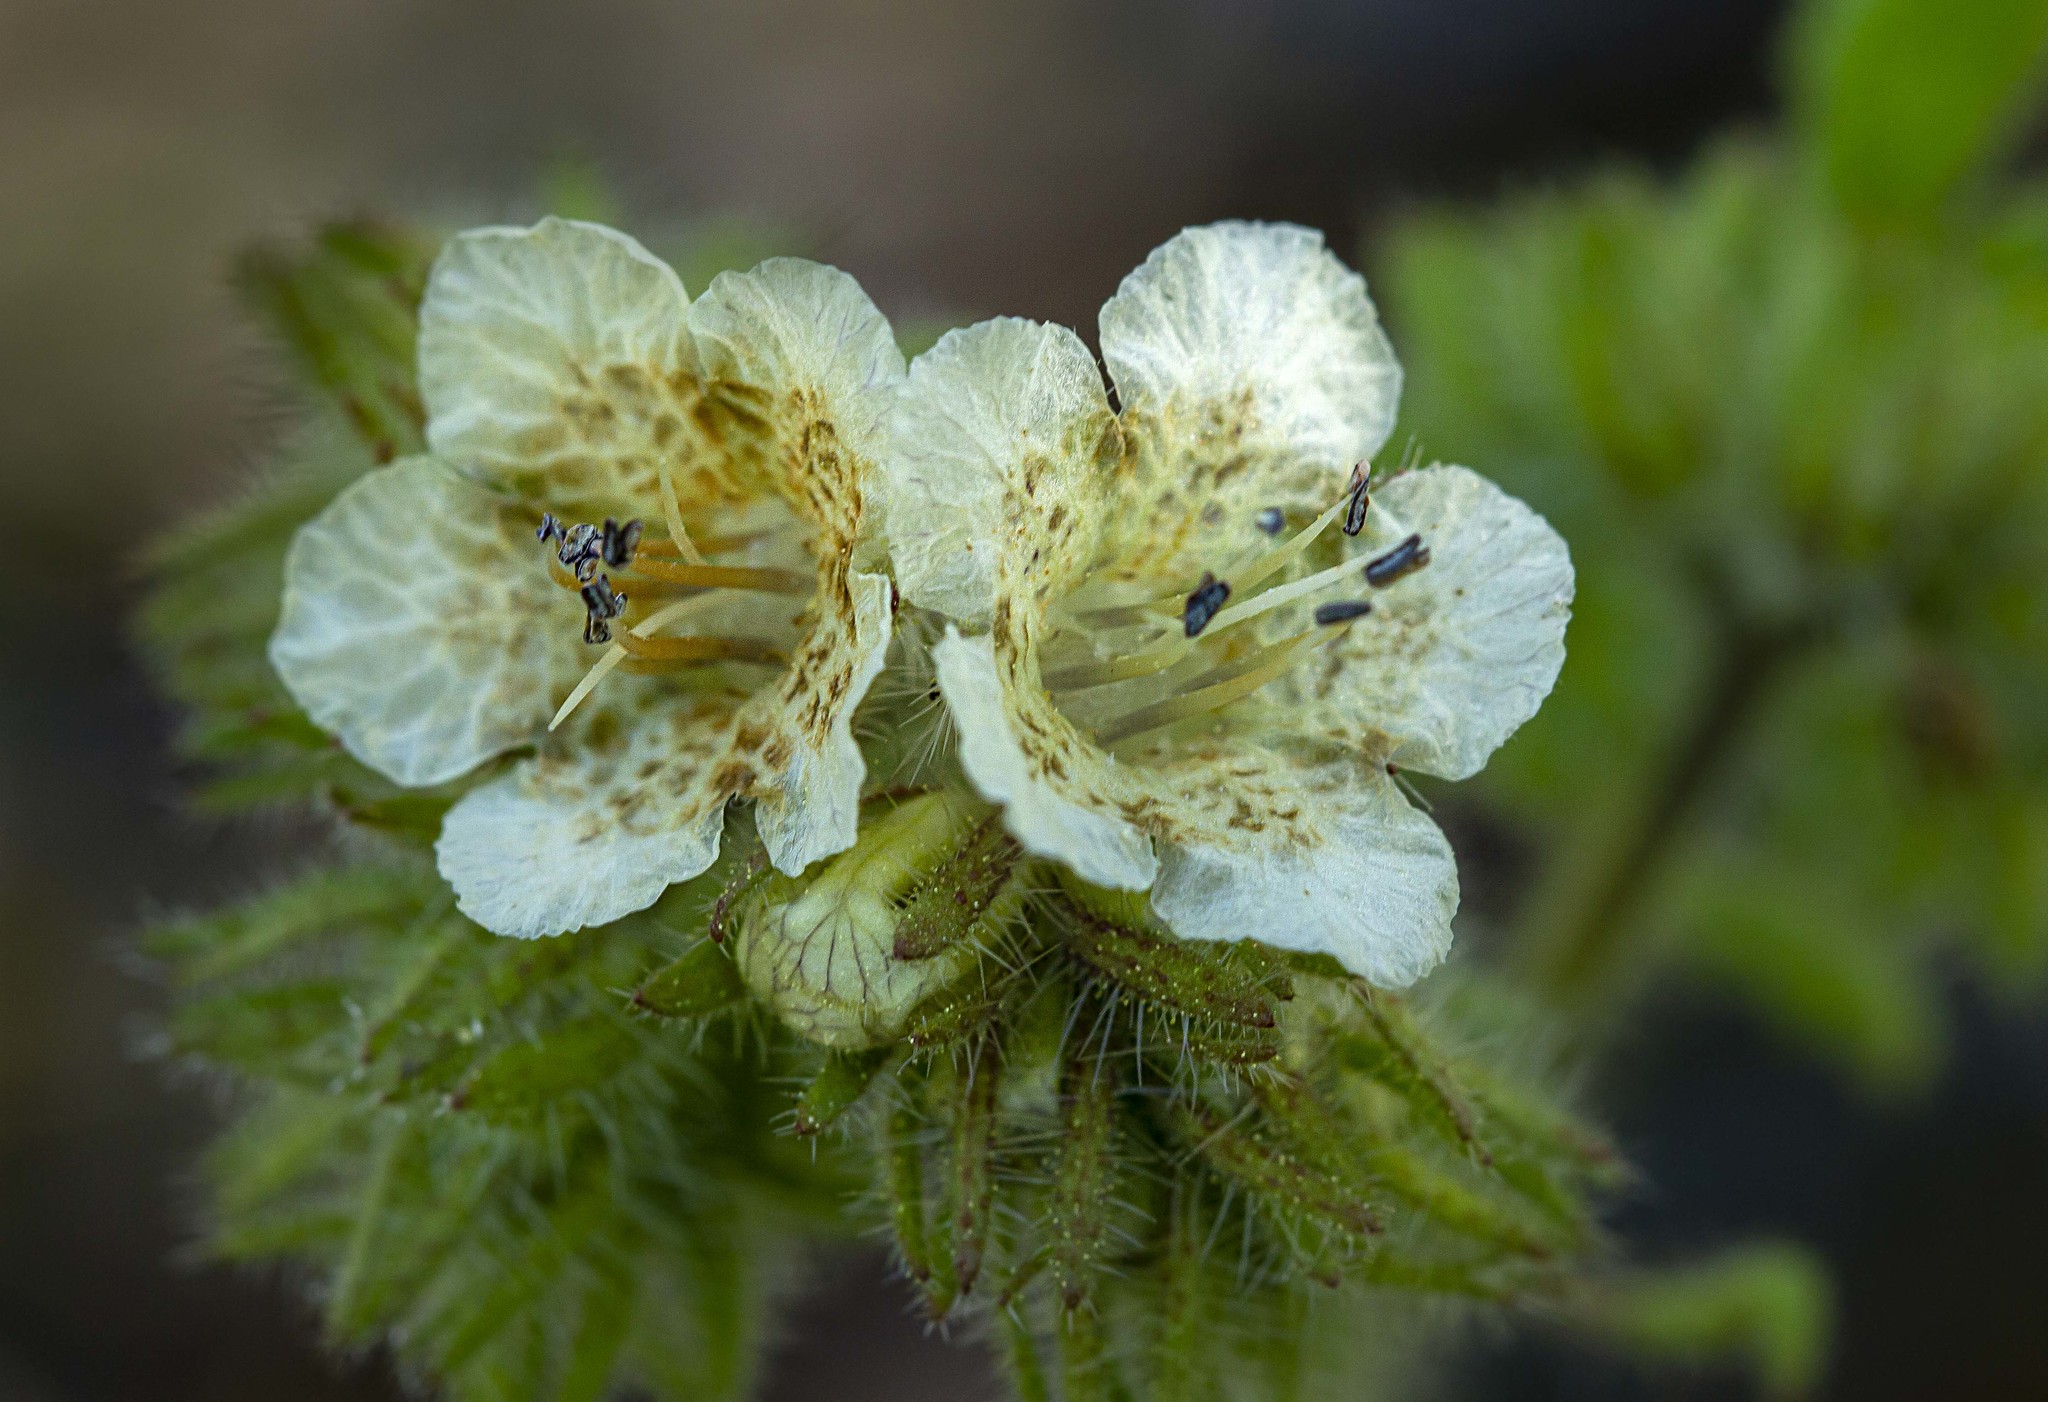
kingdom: Plantae
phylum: Tracheophyta
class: Magnoliopsida
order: Boraginales
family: Hydrophyllaceae
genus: Phacelia
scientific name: Phacelia cicutaria
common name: Caterpillar phacelia
